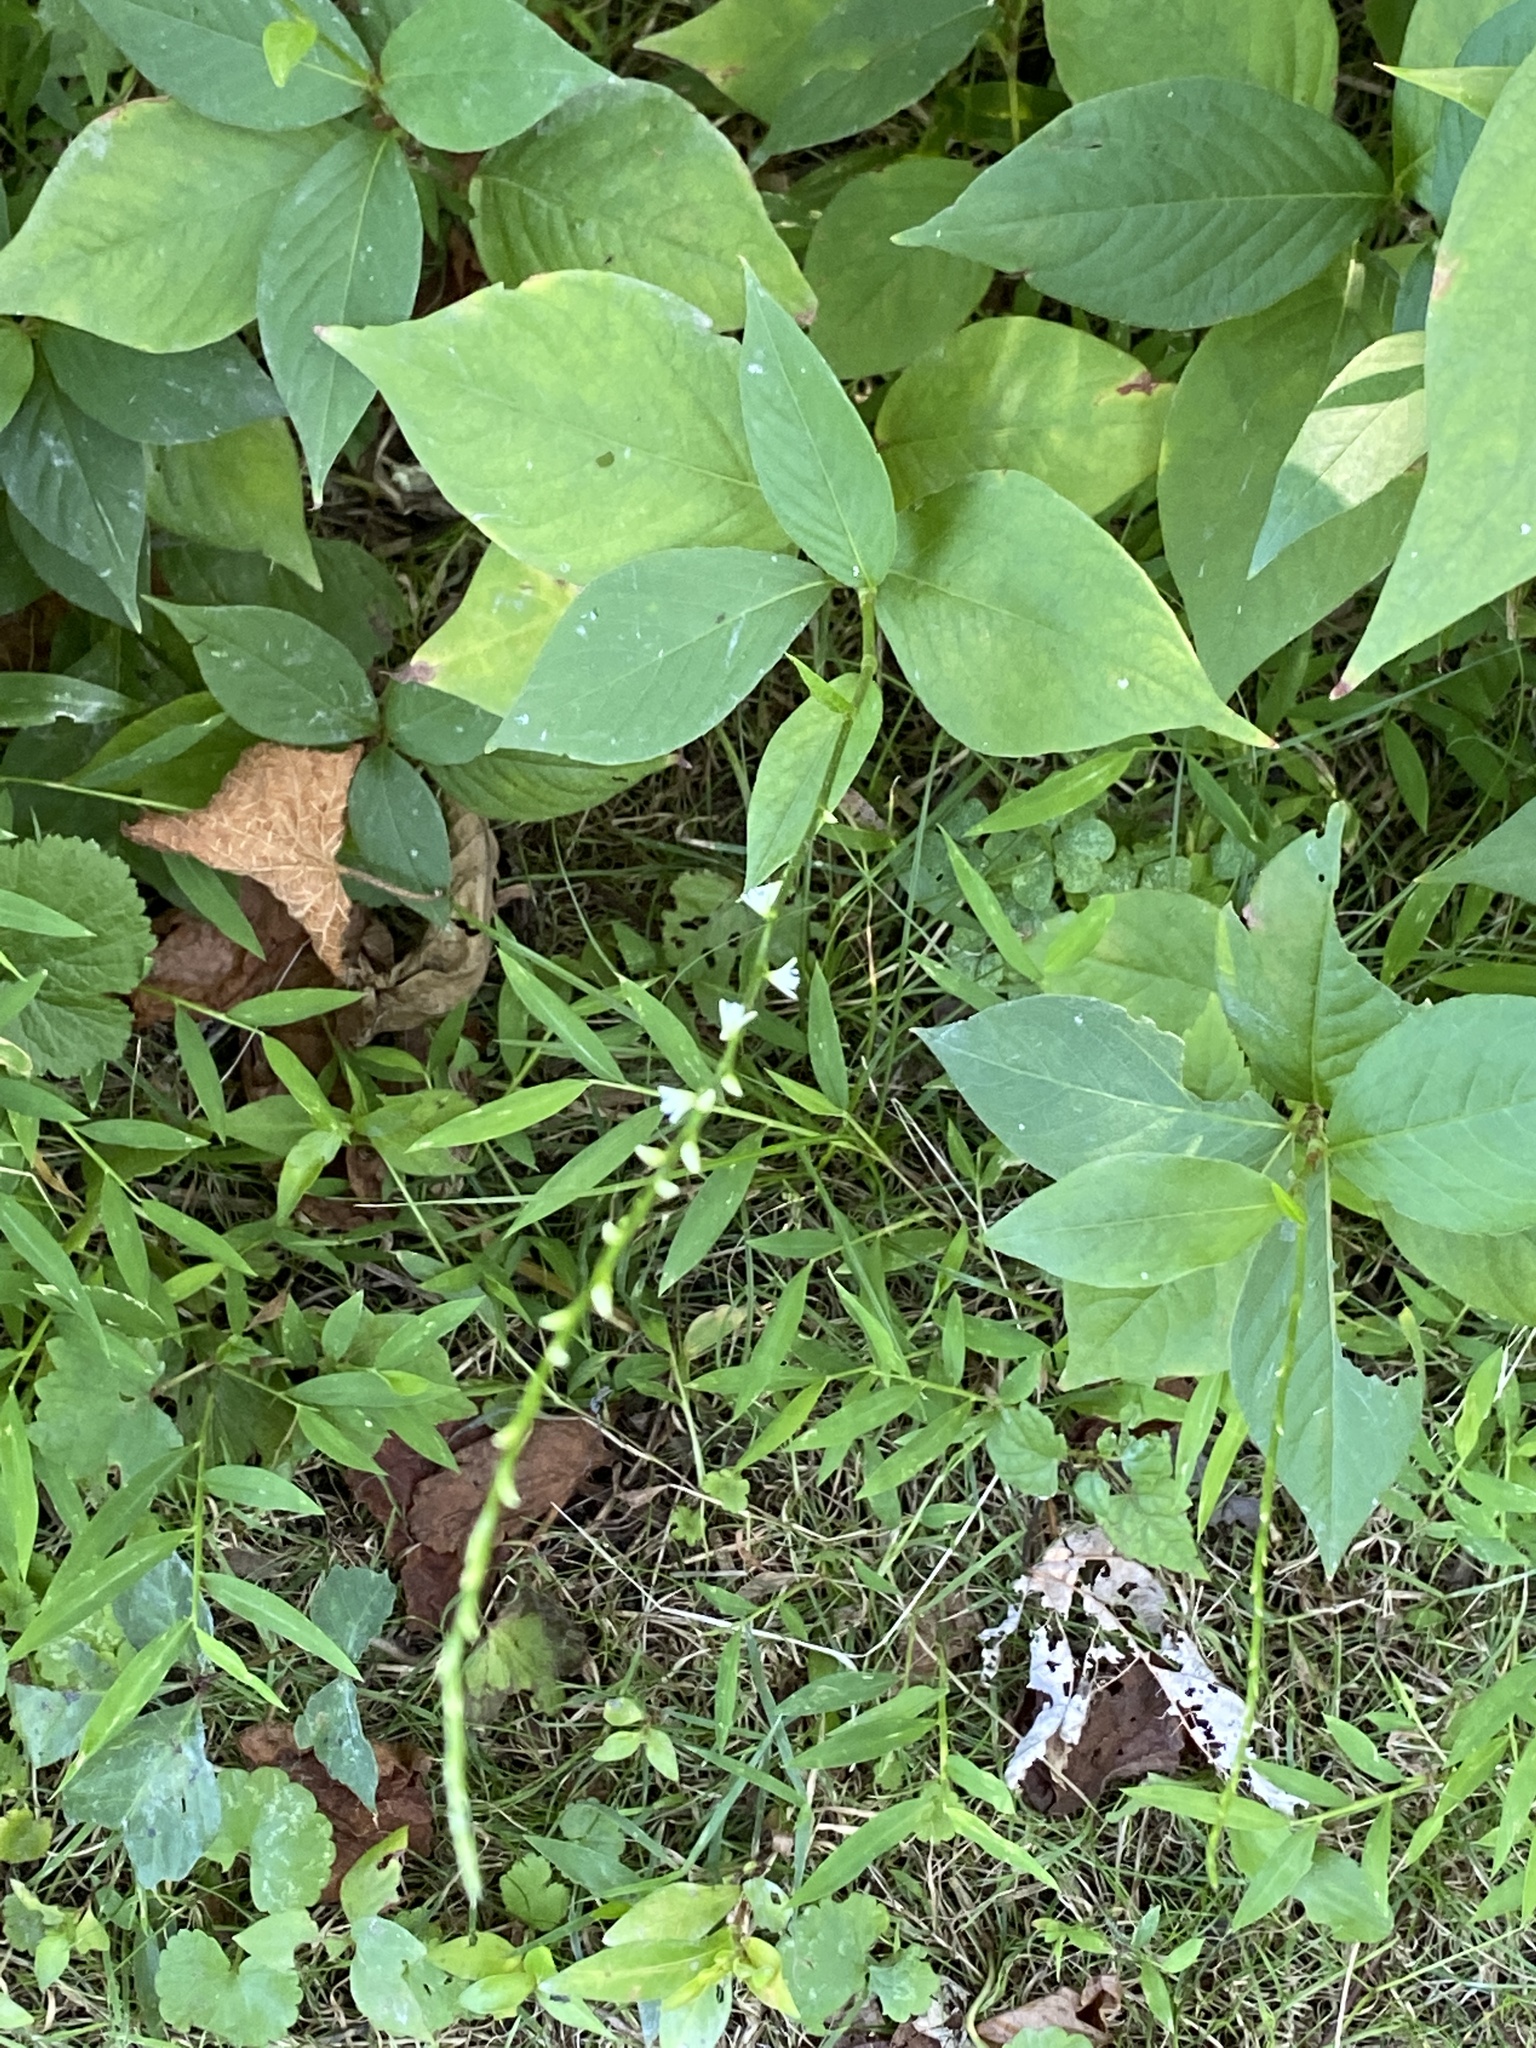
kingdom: Plantae
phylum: Tracheophyta
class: Magnoliopsida
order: Caryophyllales
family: Polygonaceae
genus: Persicaria
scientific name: Persicaria virginiana
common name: Jumpseed
